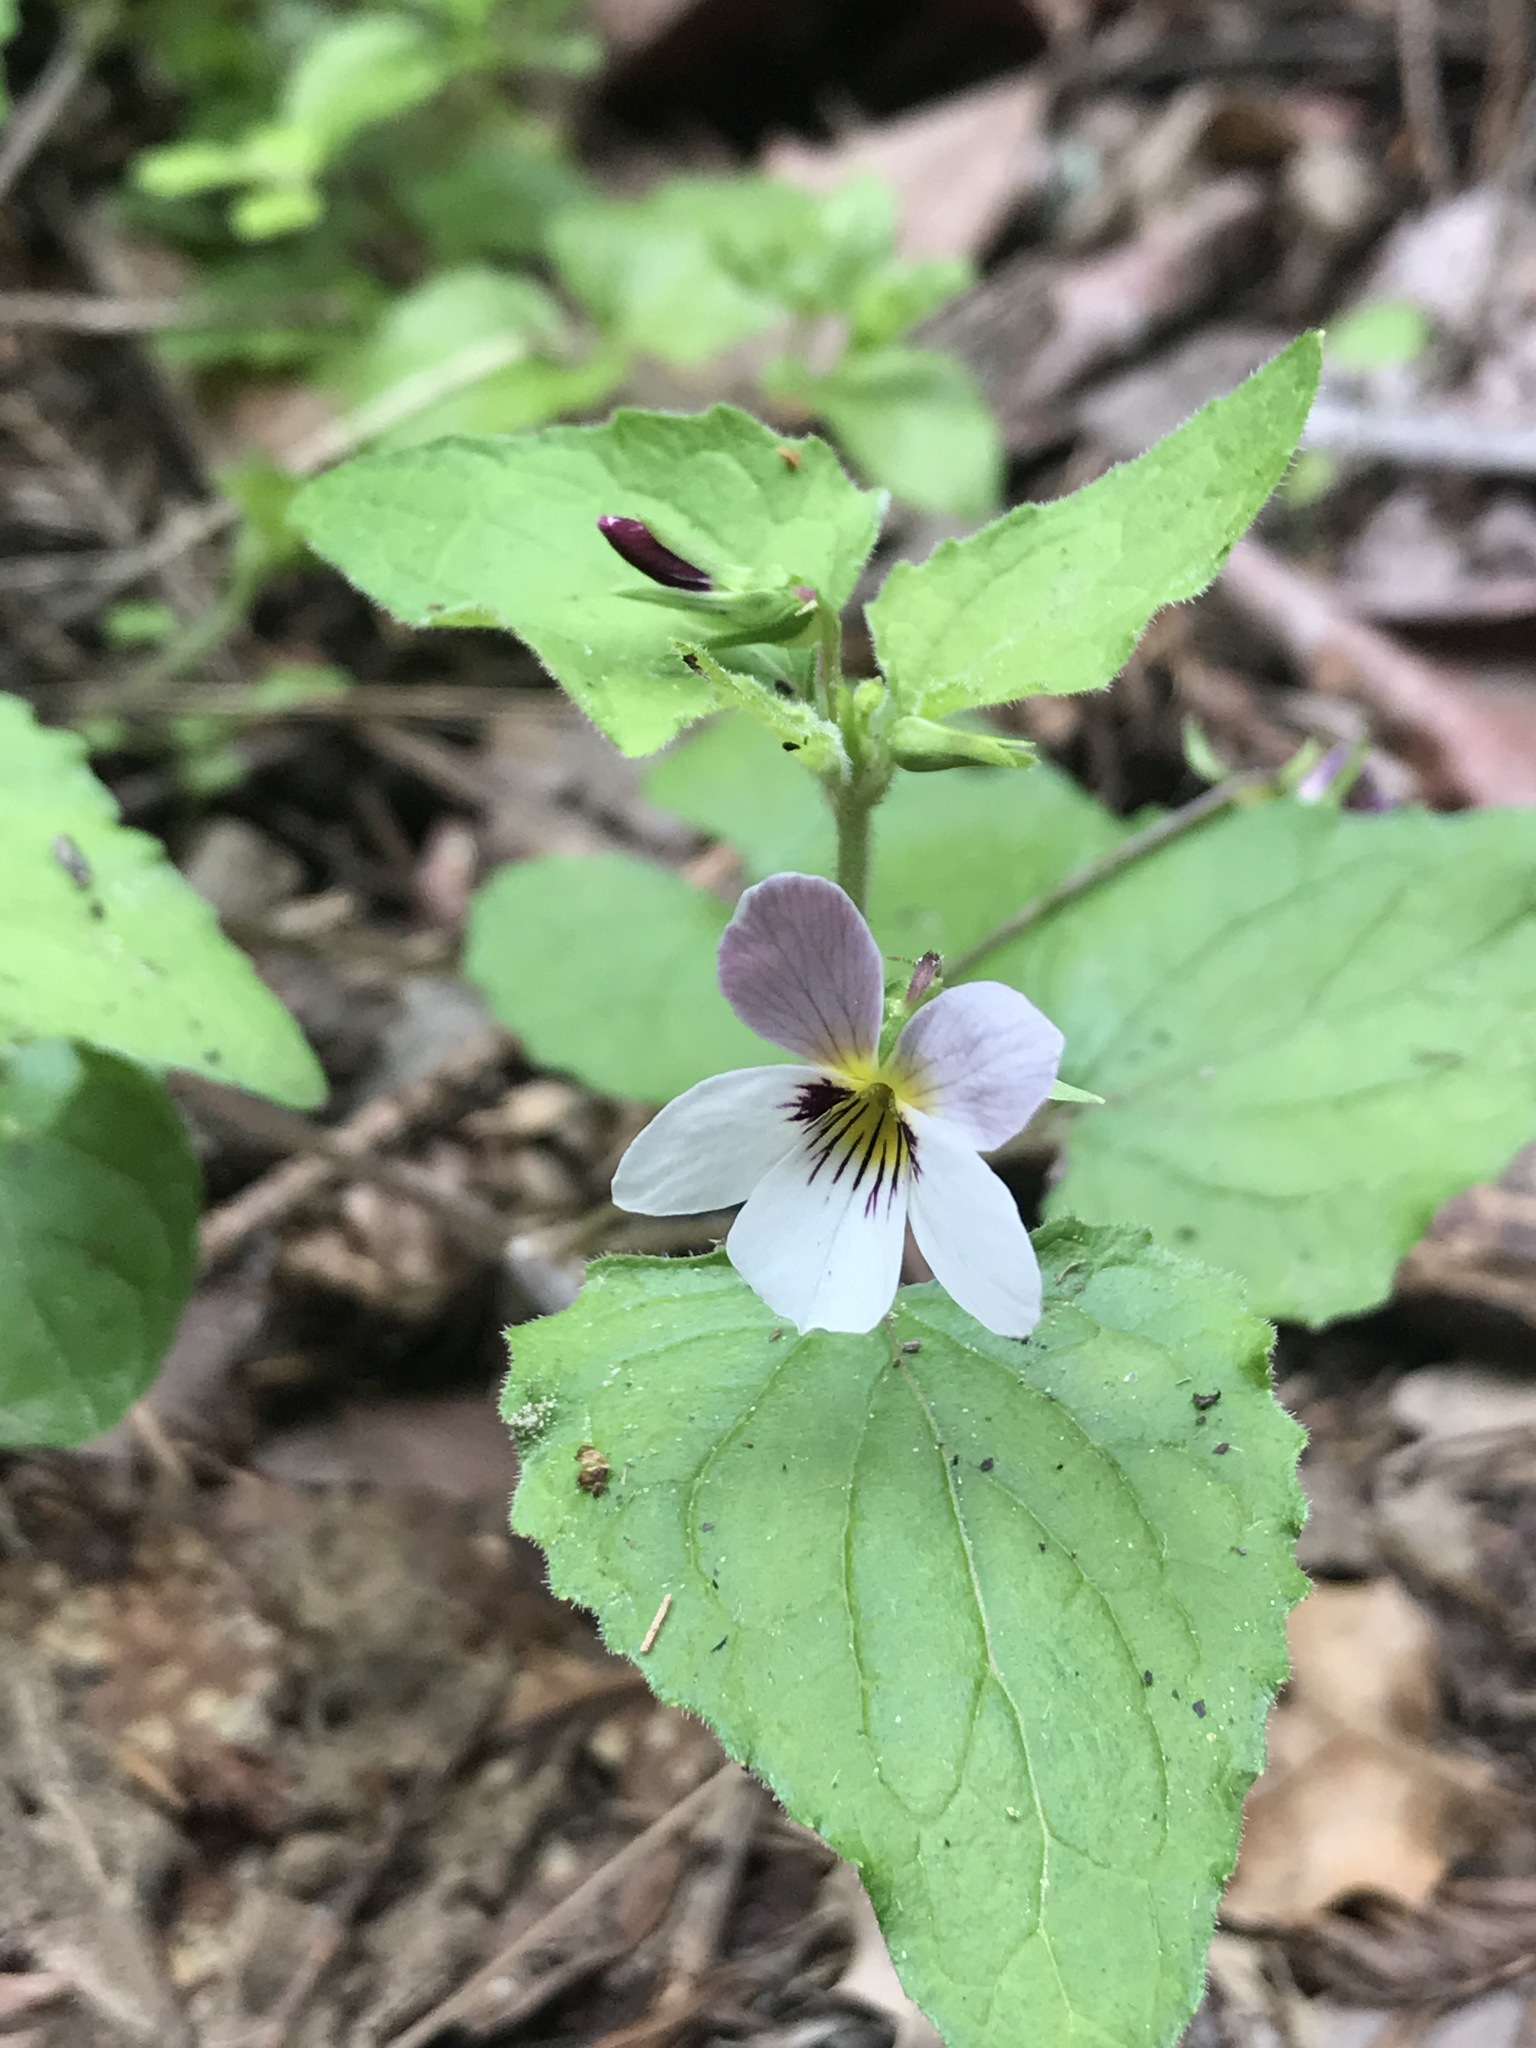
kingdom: Plantae
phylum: Tracheophyta
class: Magnoliopsida
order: Malpighiales
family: Violaceae
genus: Viola
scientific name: Viola ocellata
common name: Western heart's ease
